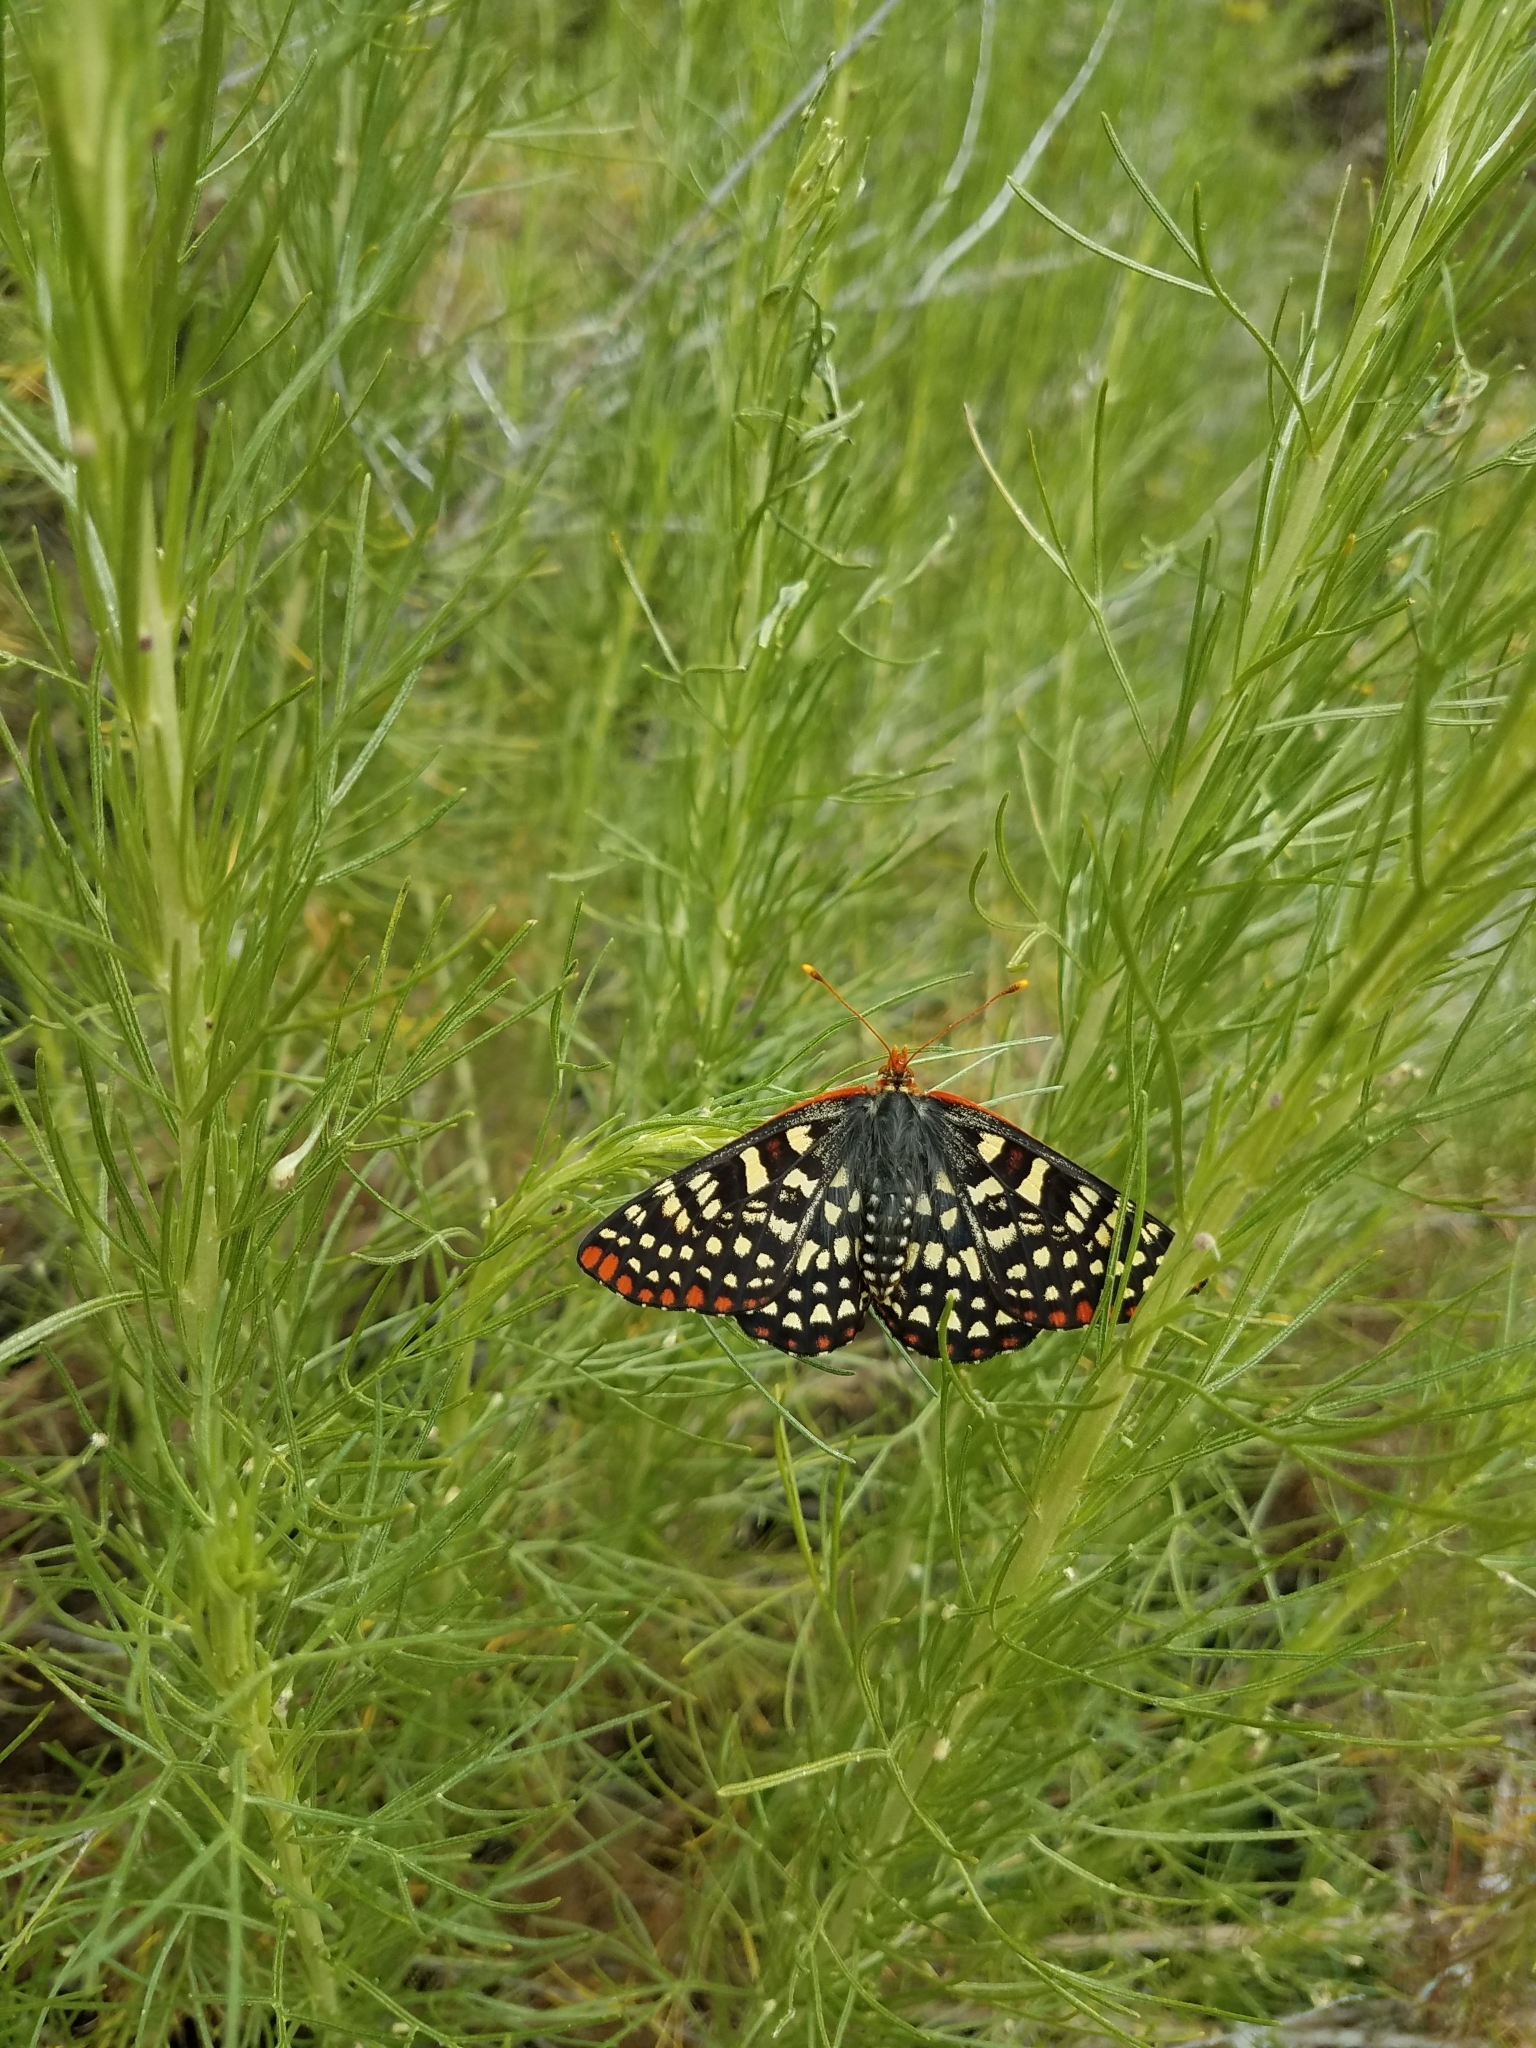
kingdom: Animalia
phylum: Arthropoda
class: Insecta
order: Lepidoptera
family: Nymphalidae
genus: Occidryas
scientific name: Occidryas chalcedona
